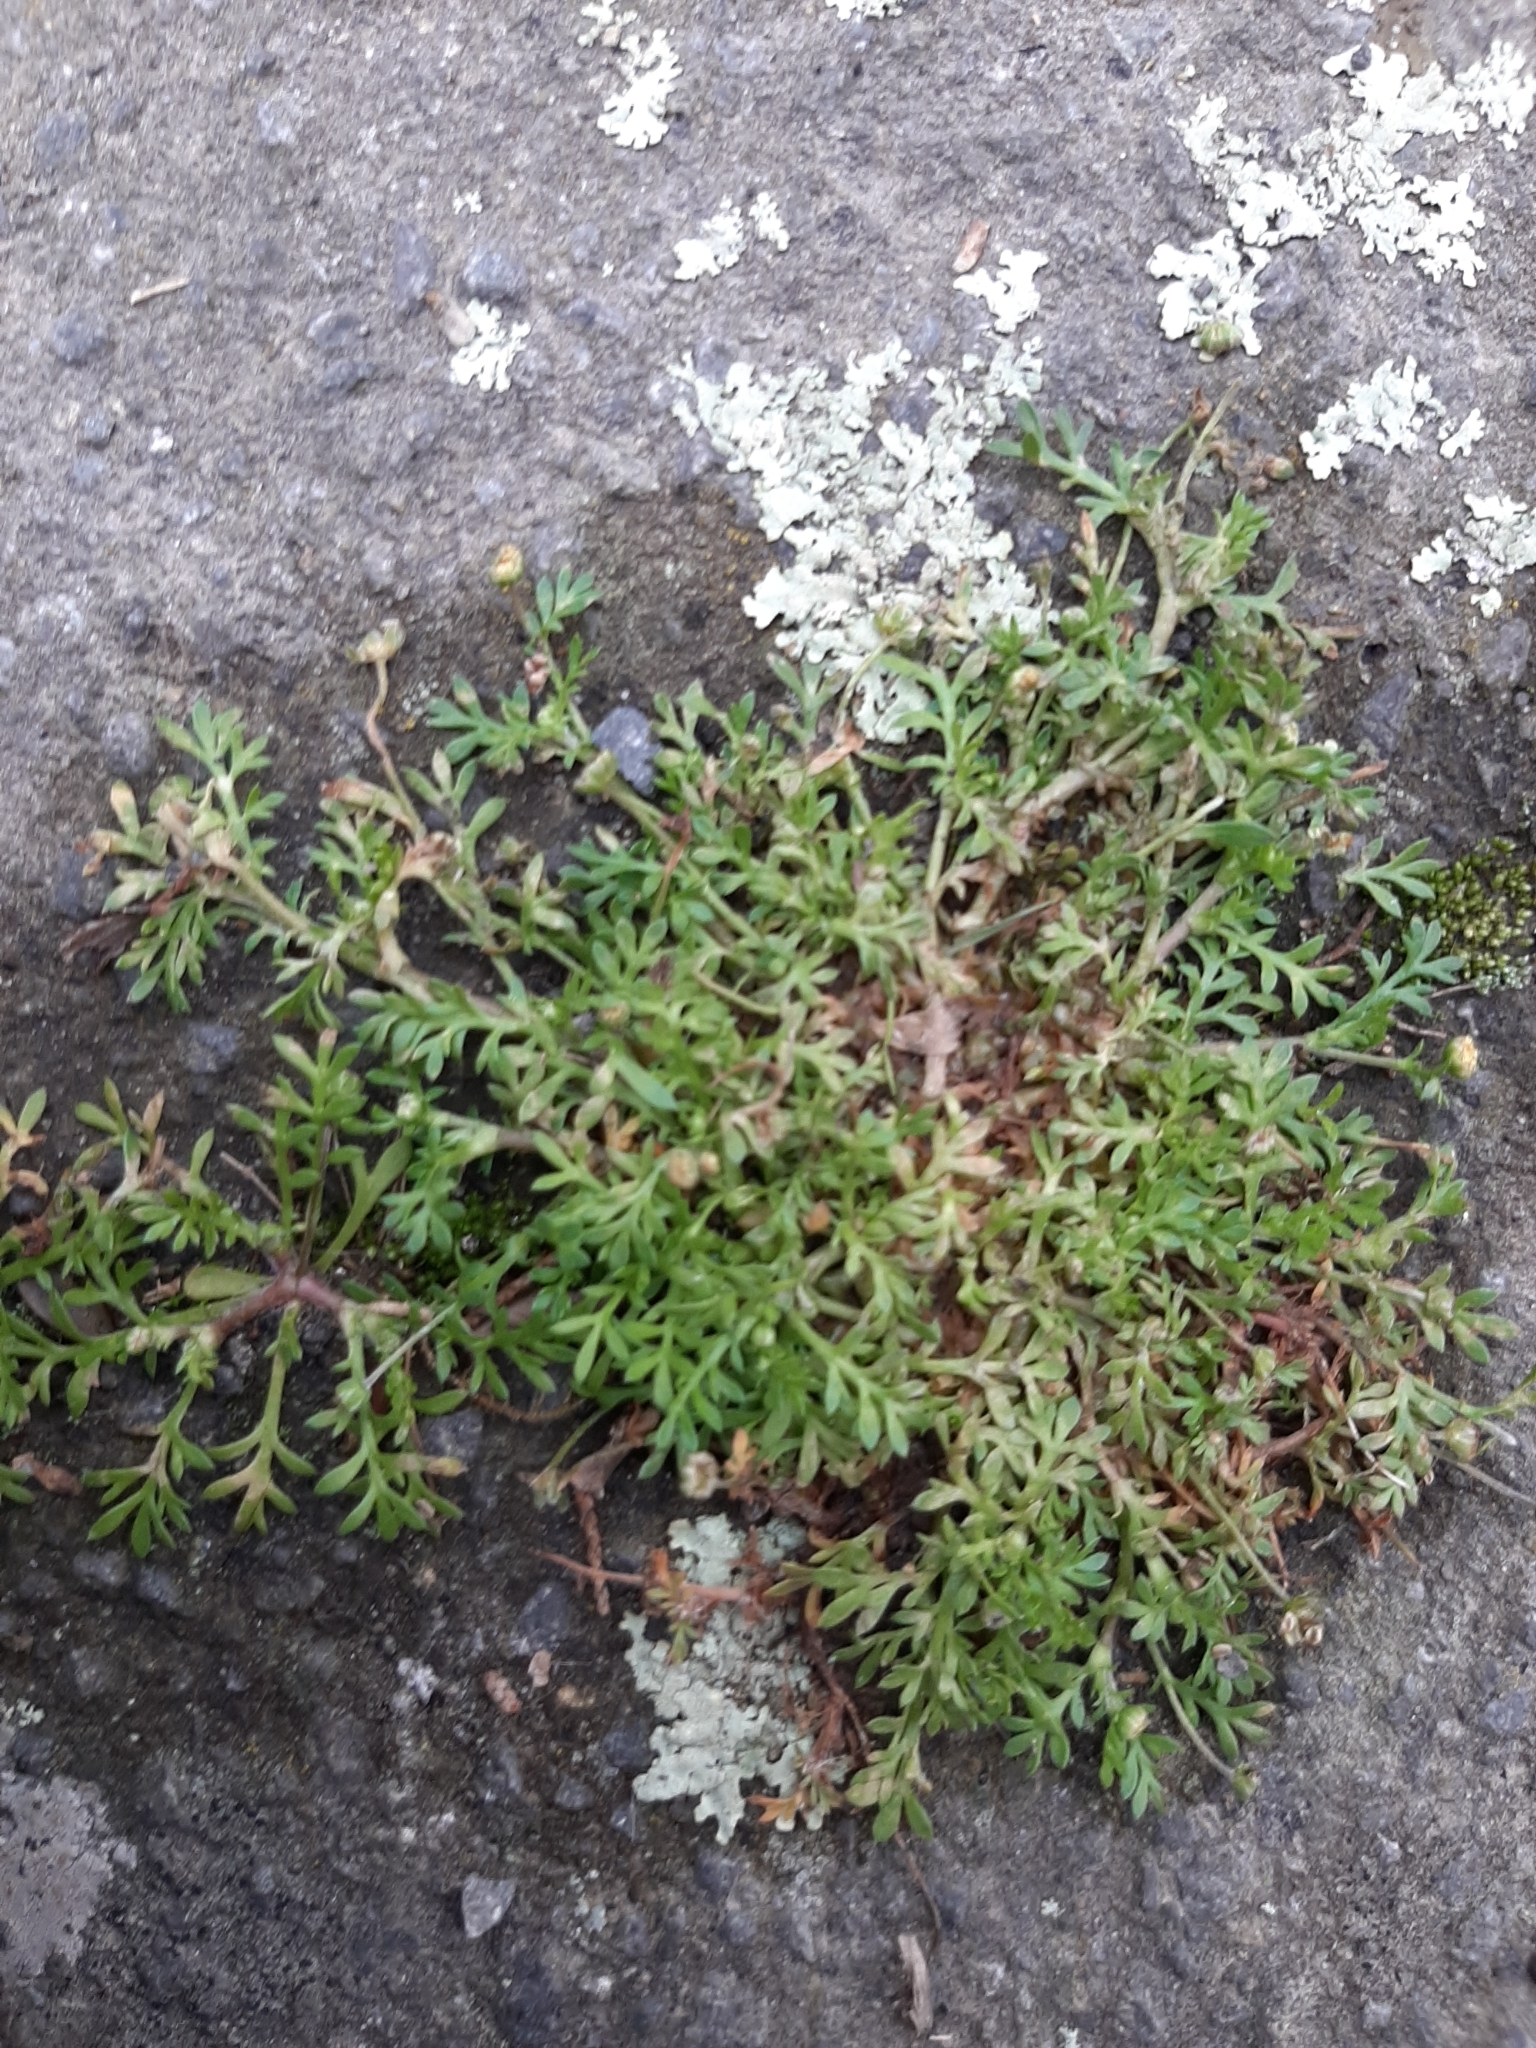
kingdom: Plantae
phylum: Tracheophyta
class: Magnoliopsida
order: Asterales
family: Asteraceae
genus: Cotula
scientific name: Cotula australis
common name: Australian waterbuttons
